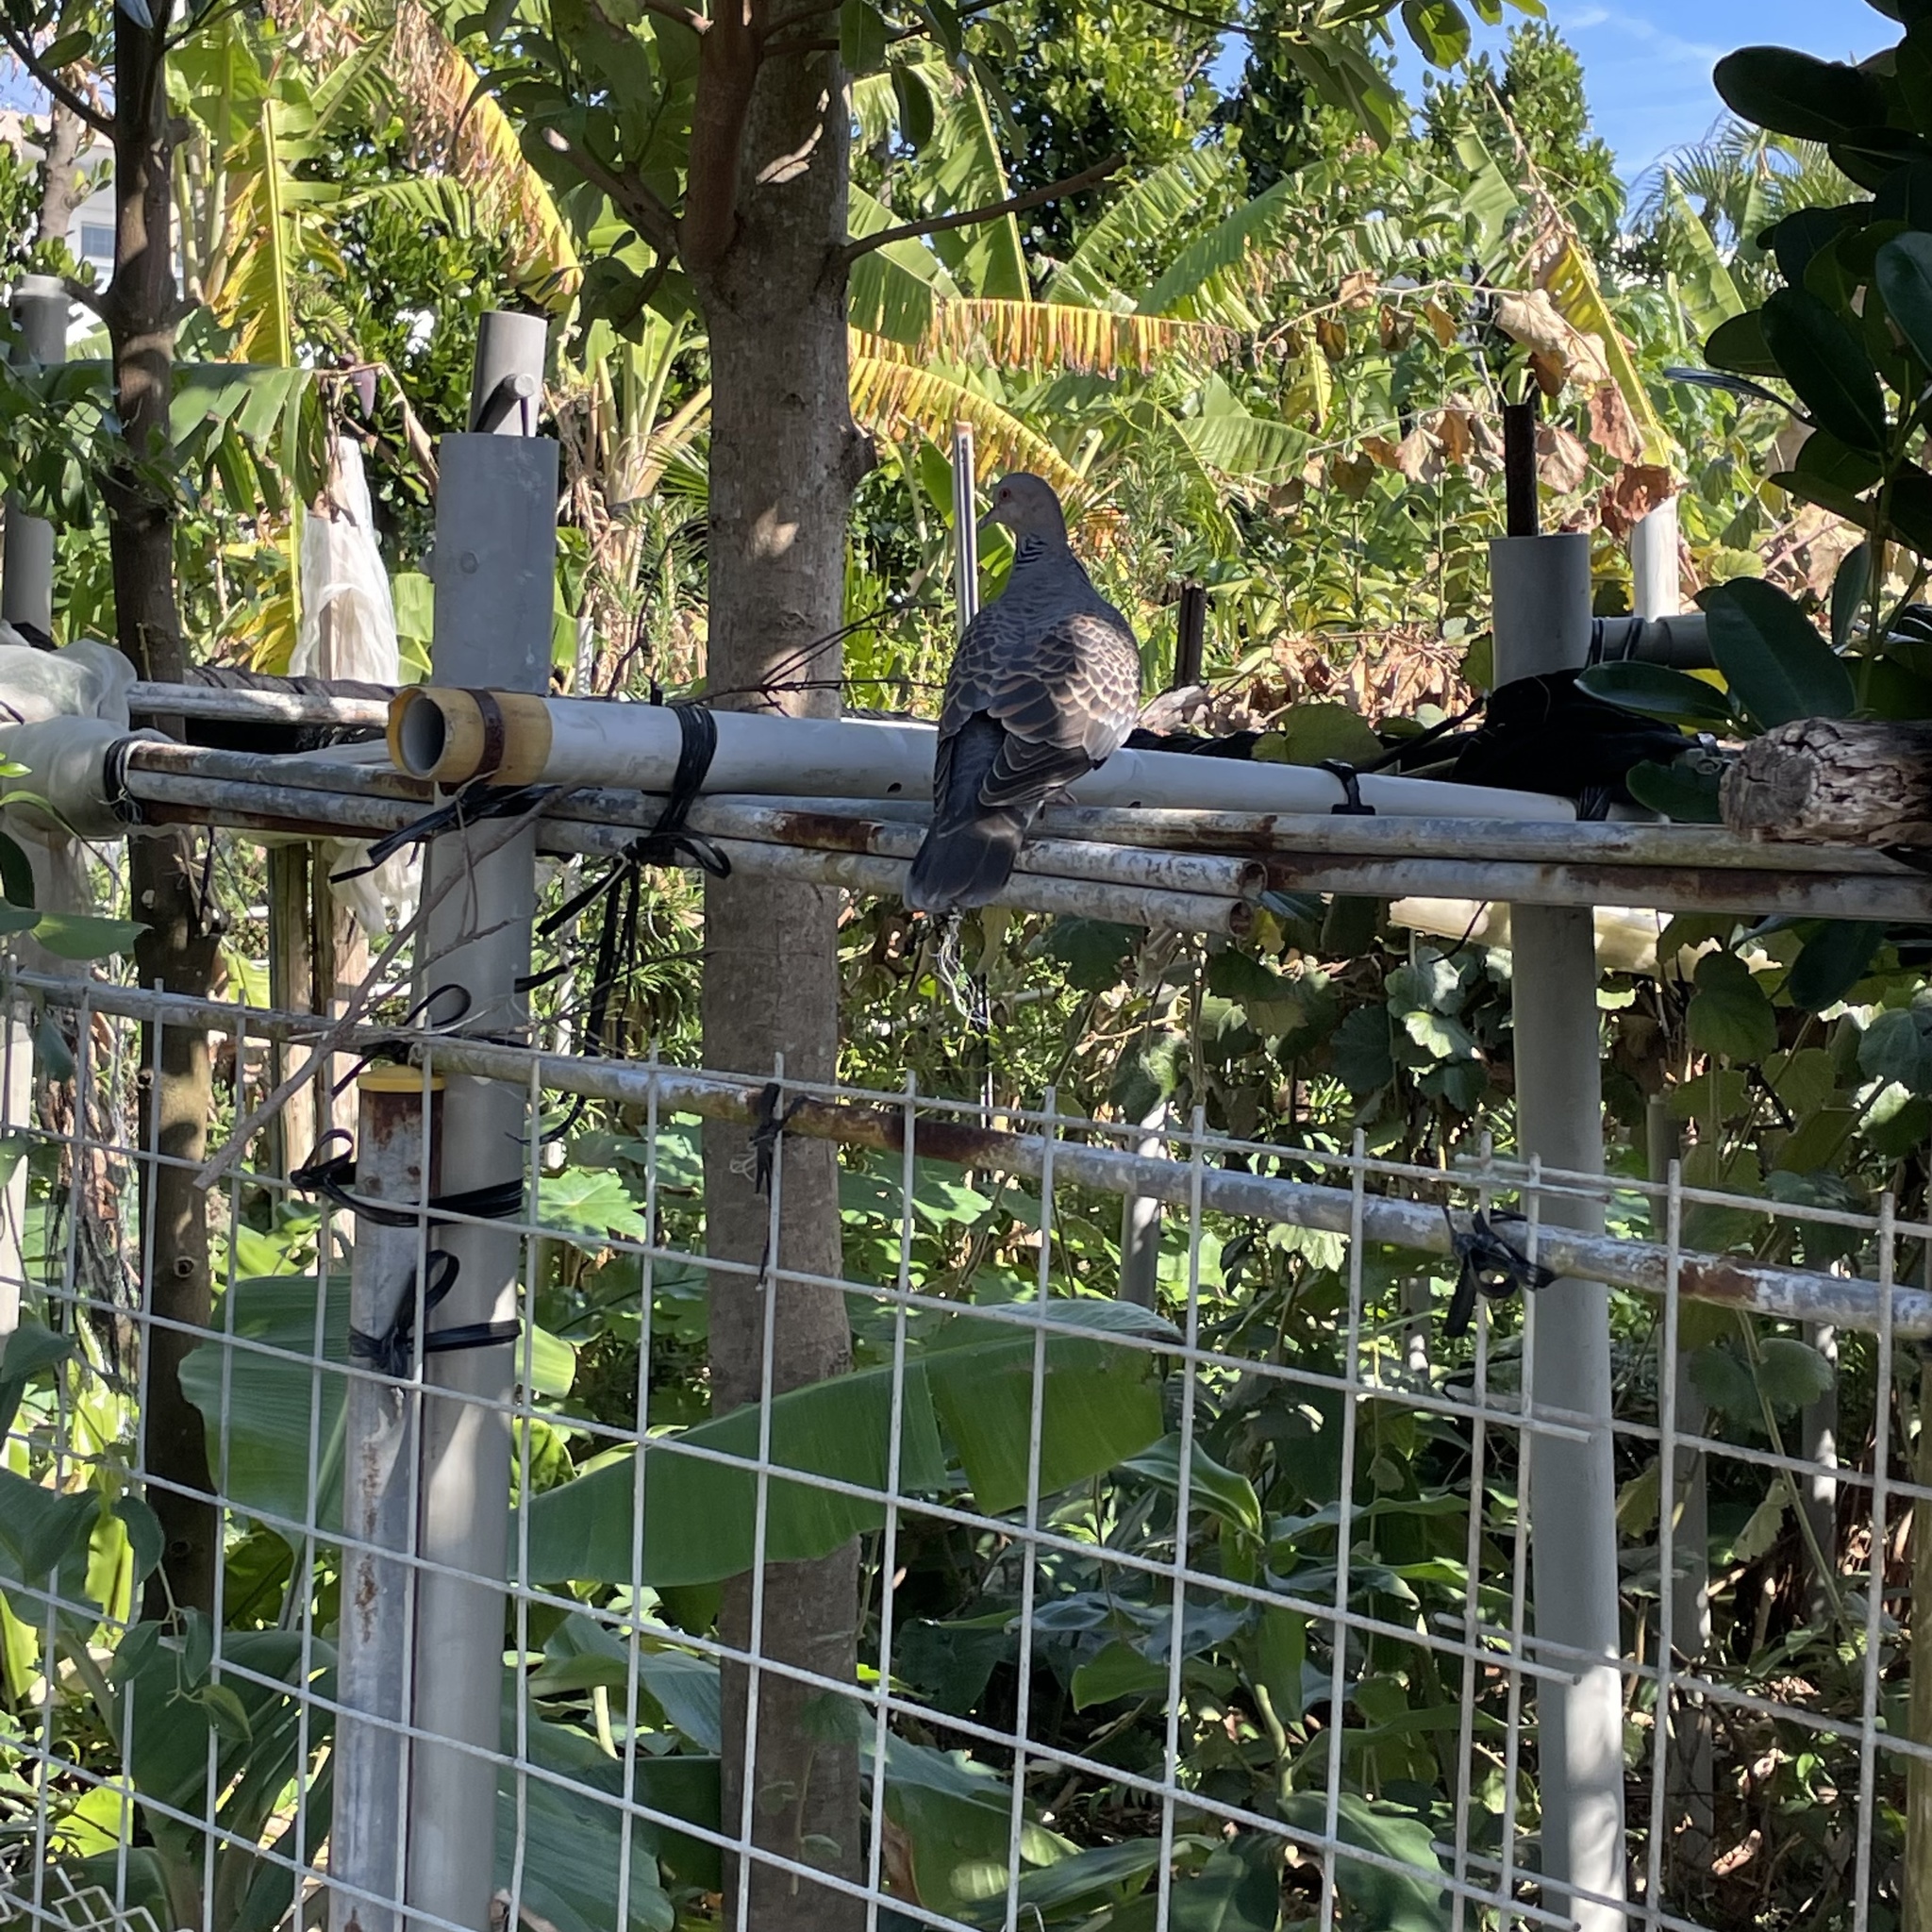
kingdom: Animalia
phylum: Chordata
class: Aves
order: Columbiformes
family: Columbidae
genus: Streptopelia
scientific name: Streptopelia orientalis
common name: Oriental turtle dove
